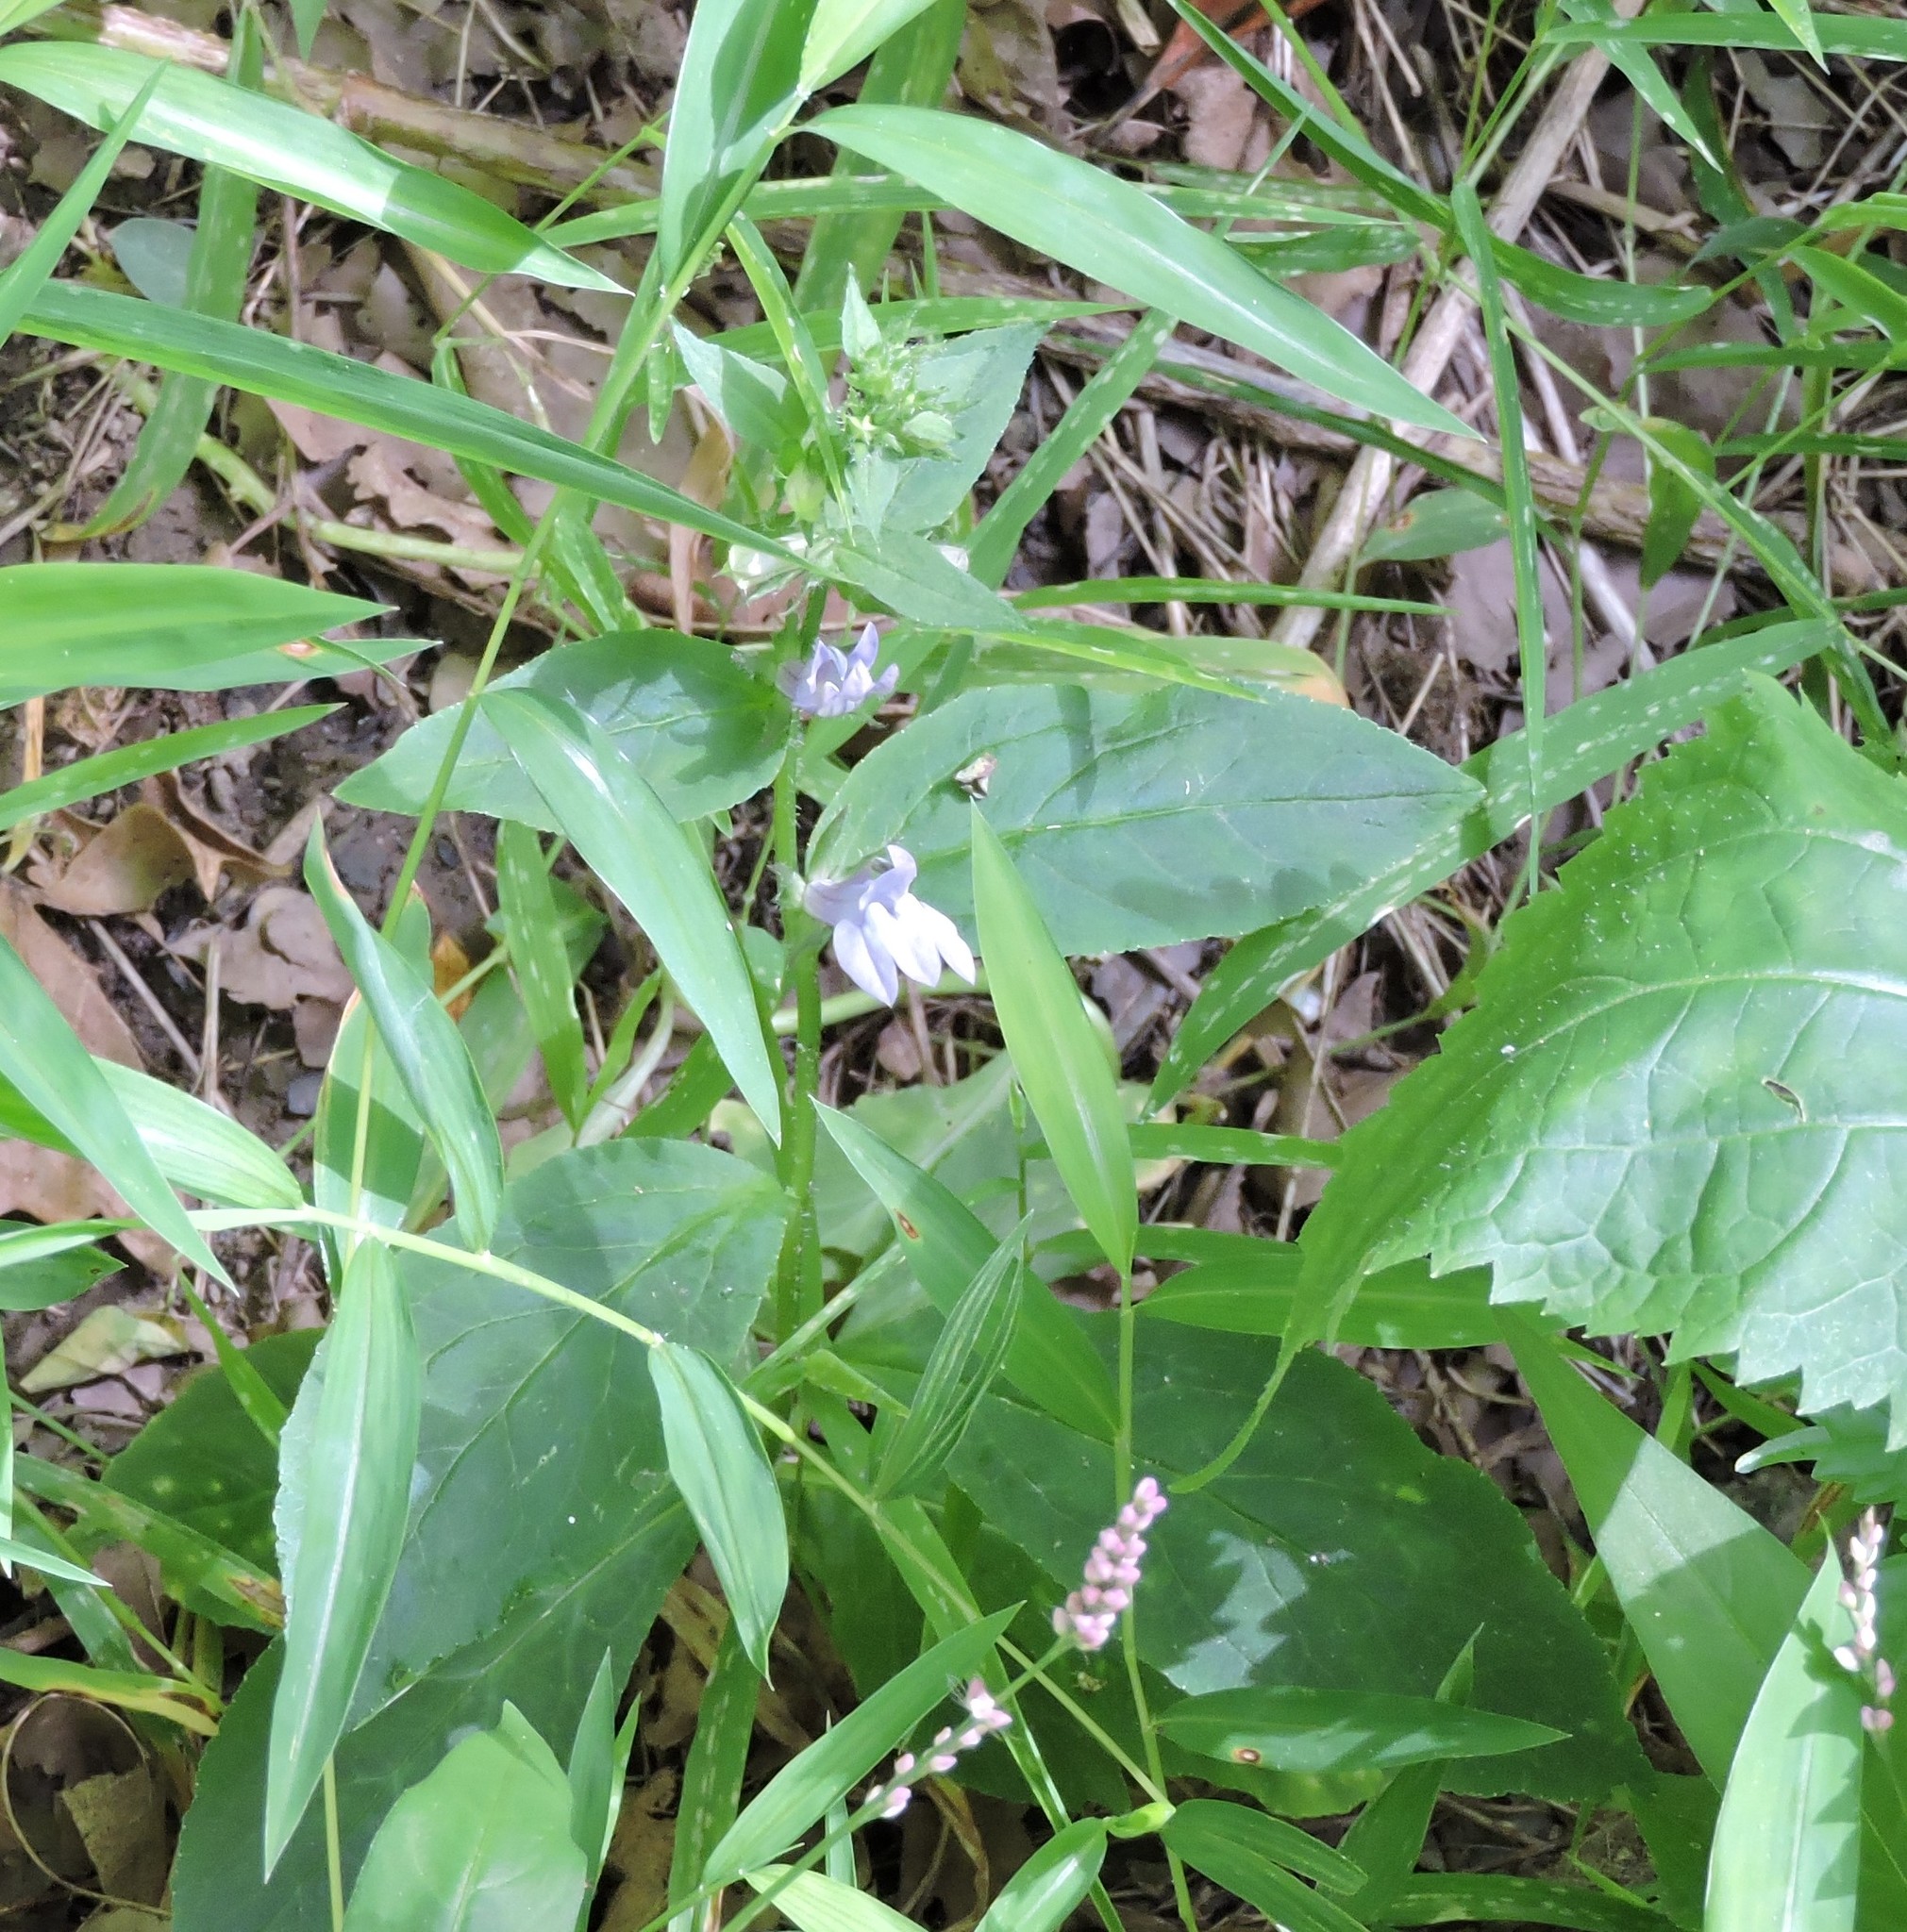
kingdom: Plantae
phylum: Tracheophyta
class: Magnoliopsida
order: Asterales
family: Campanulaceae
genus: Lobelia
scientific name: Lobelia siphilitica
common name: Great lobelia
